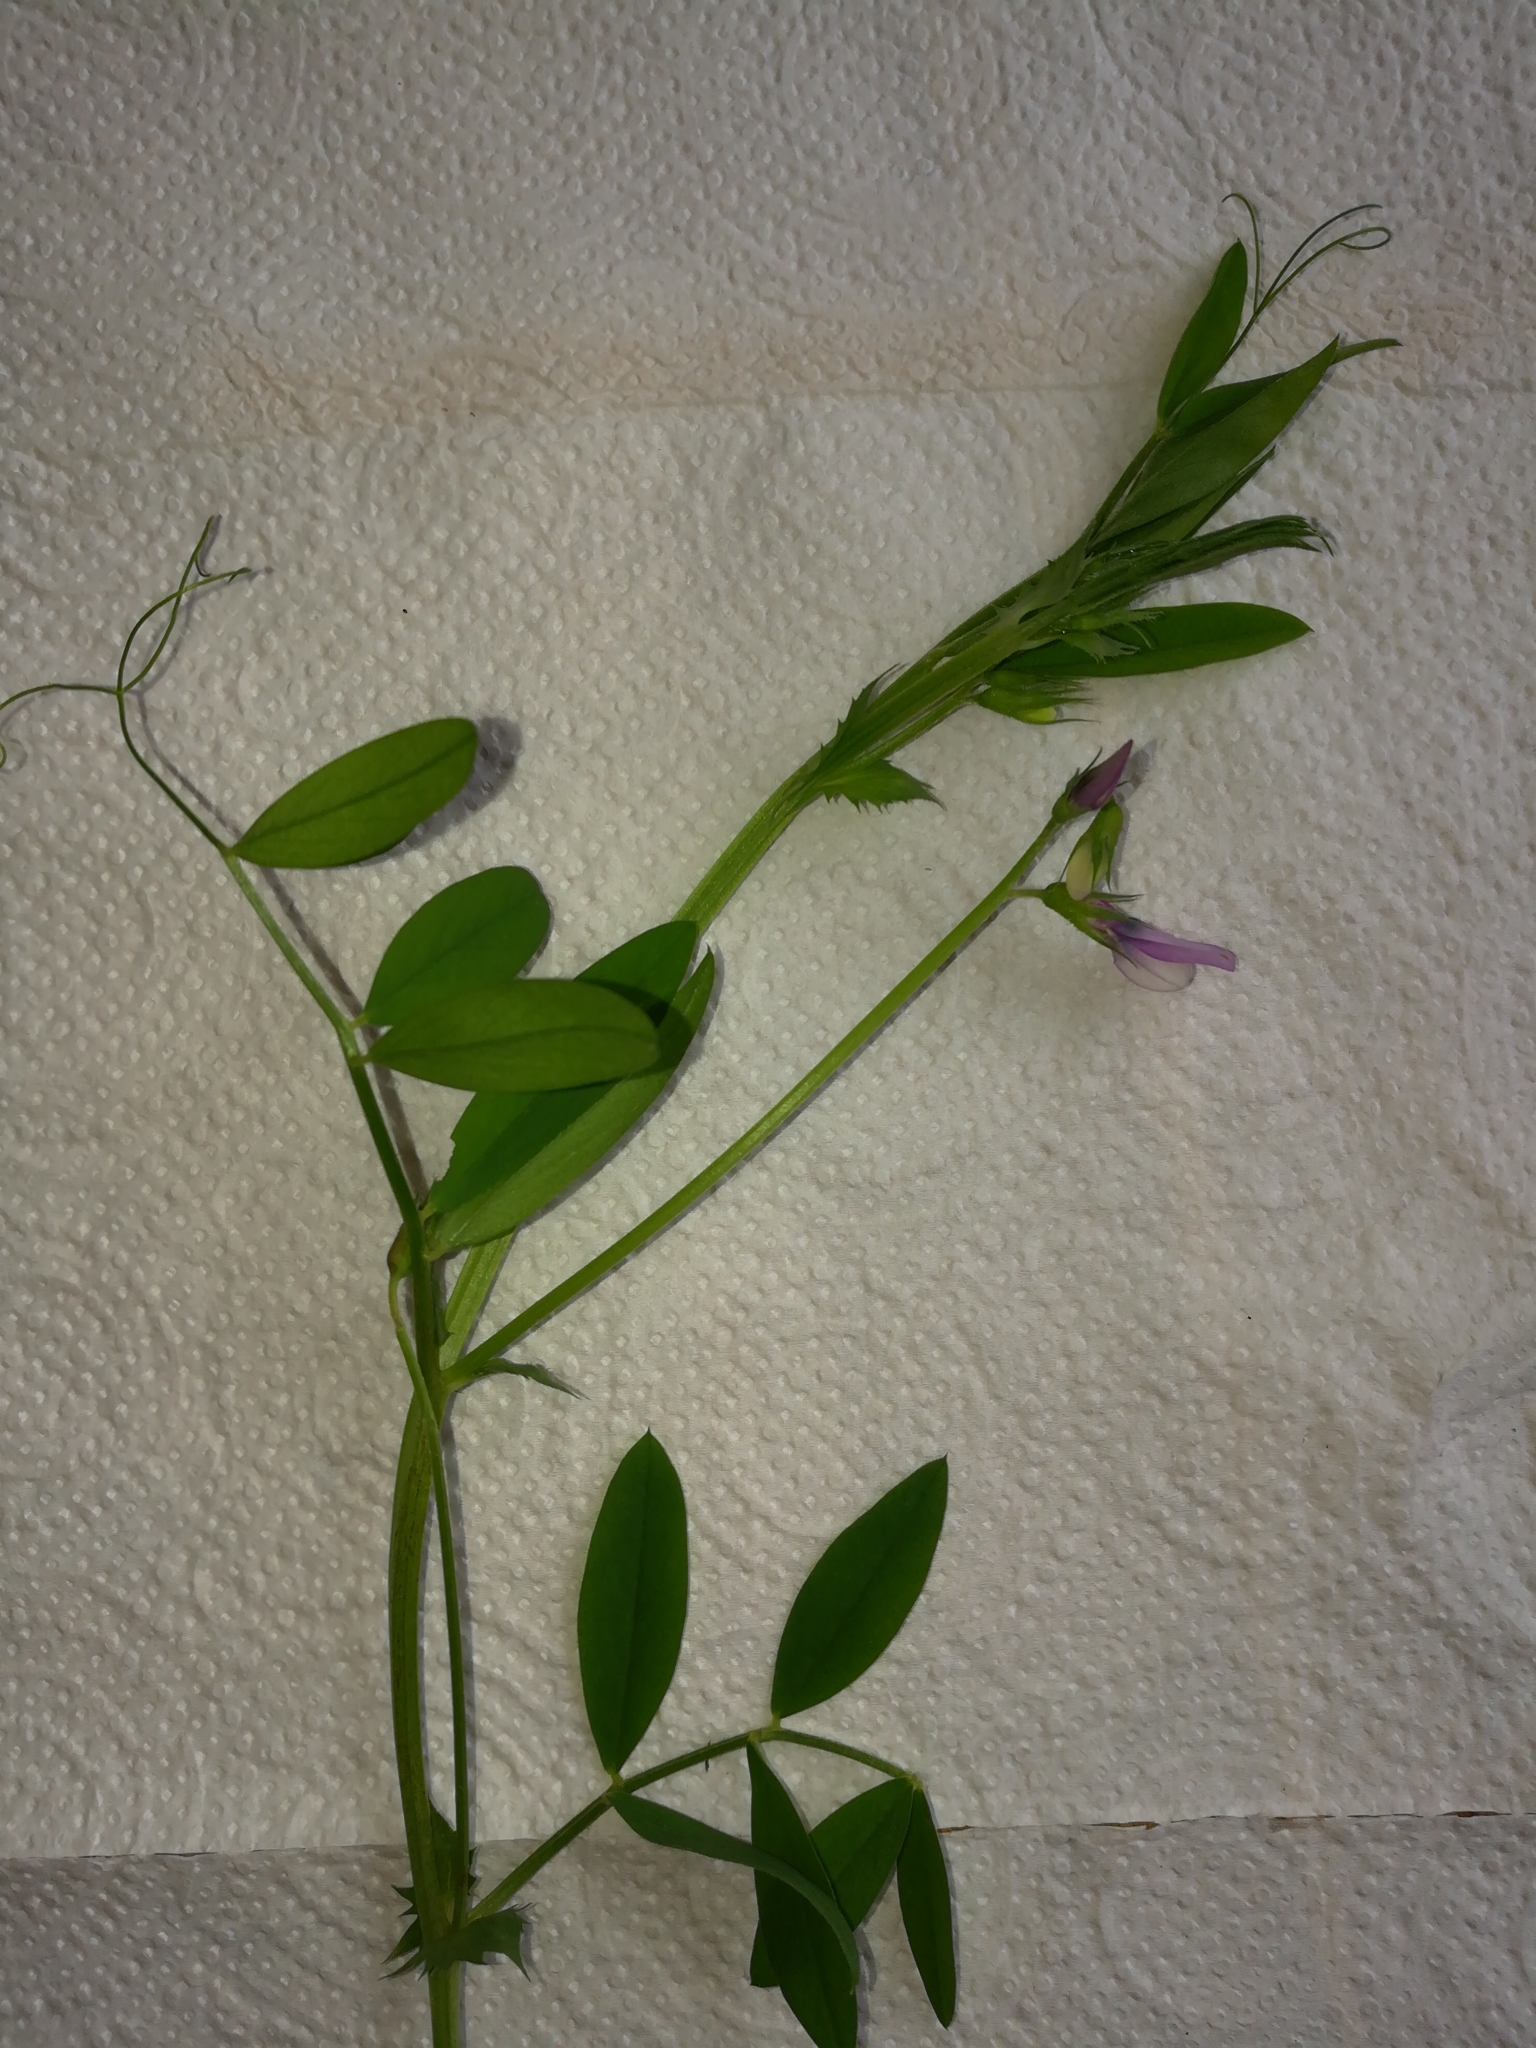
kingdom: Plantae
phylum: Tracheophyta
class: Magnoliopsida
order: Fabales
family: Fabaceae
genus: Vicia
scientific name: Vicia bithynica
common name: Bithynian vetch
